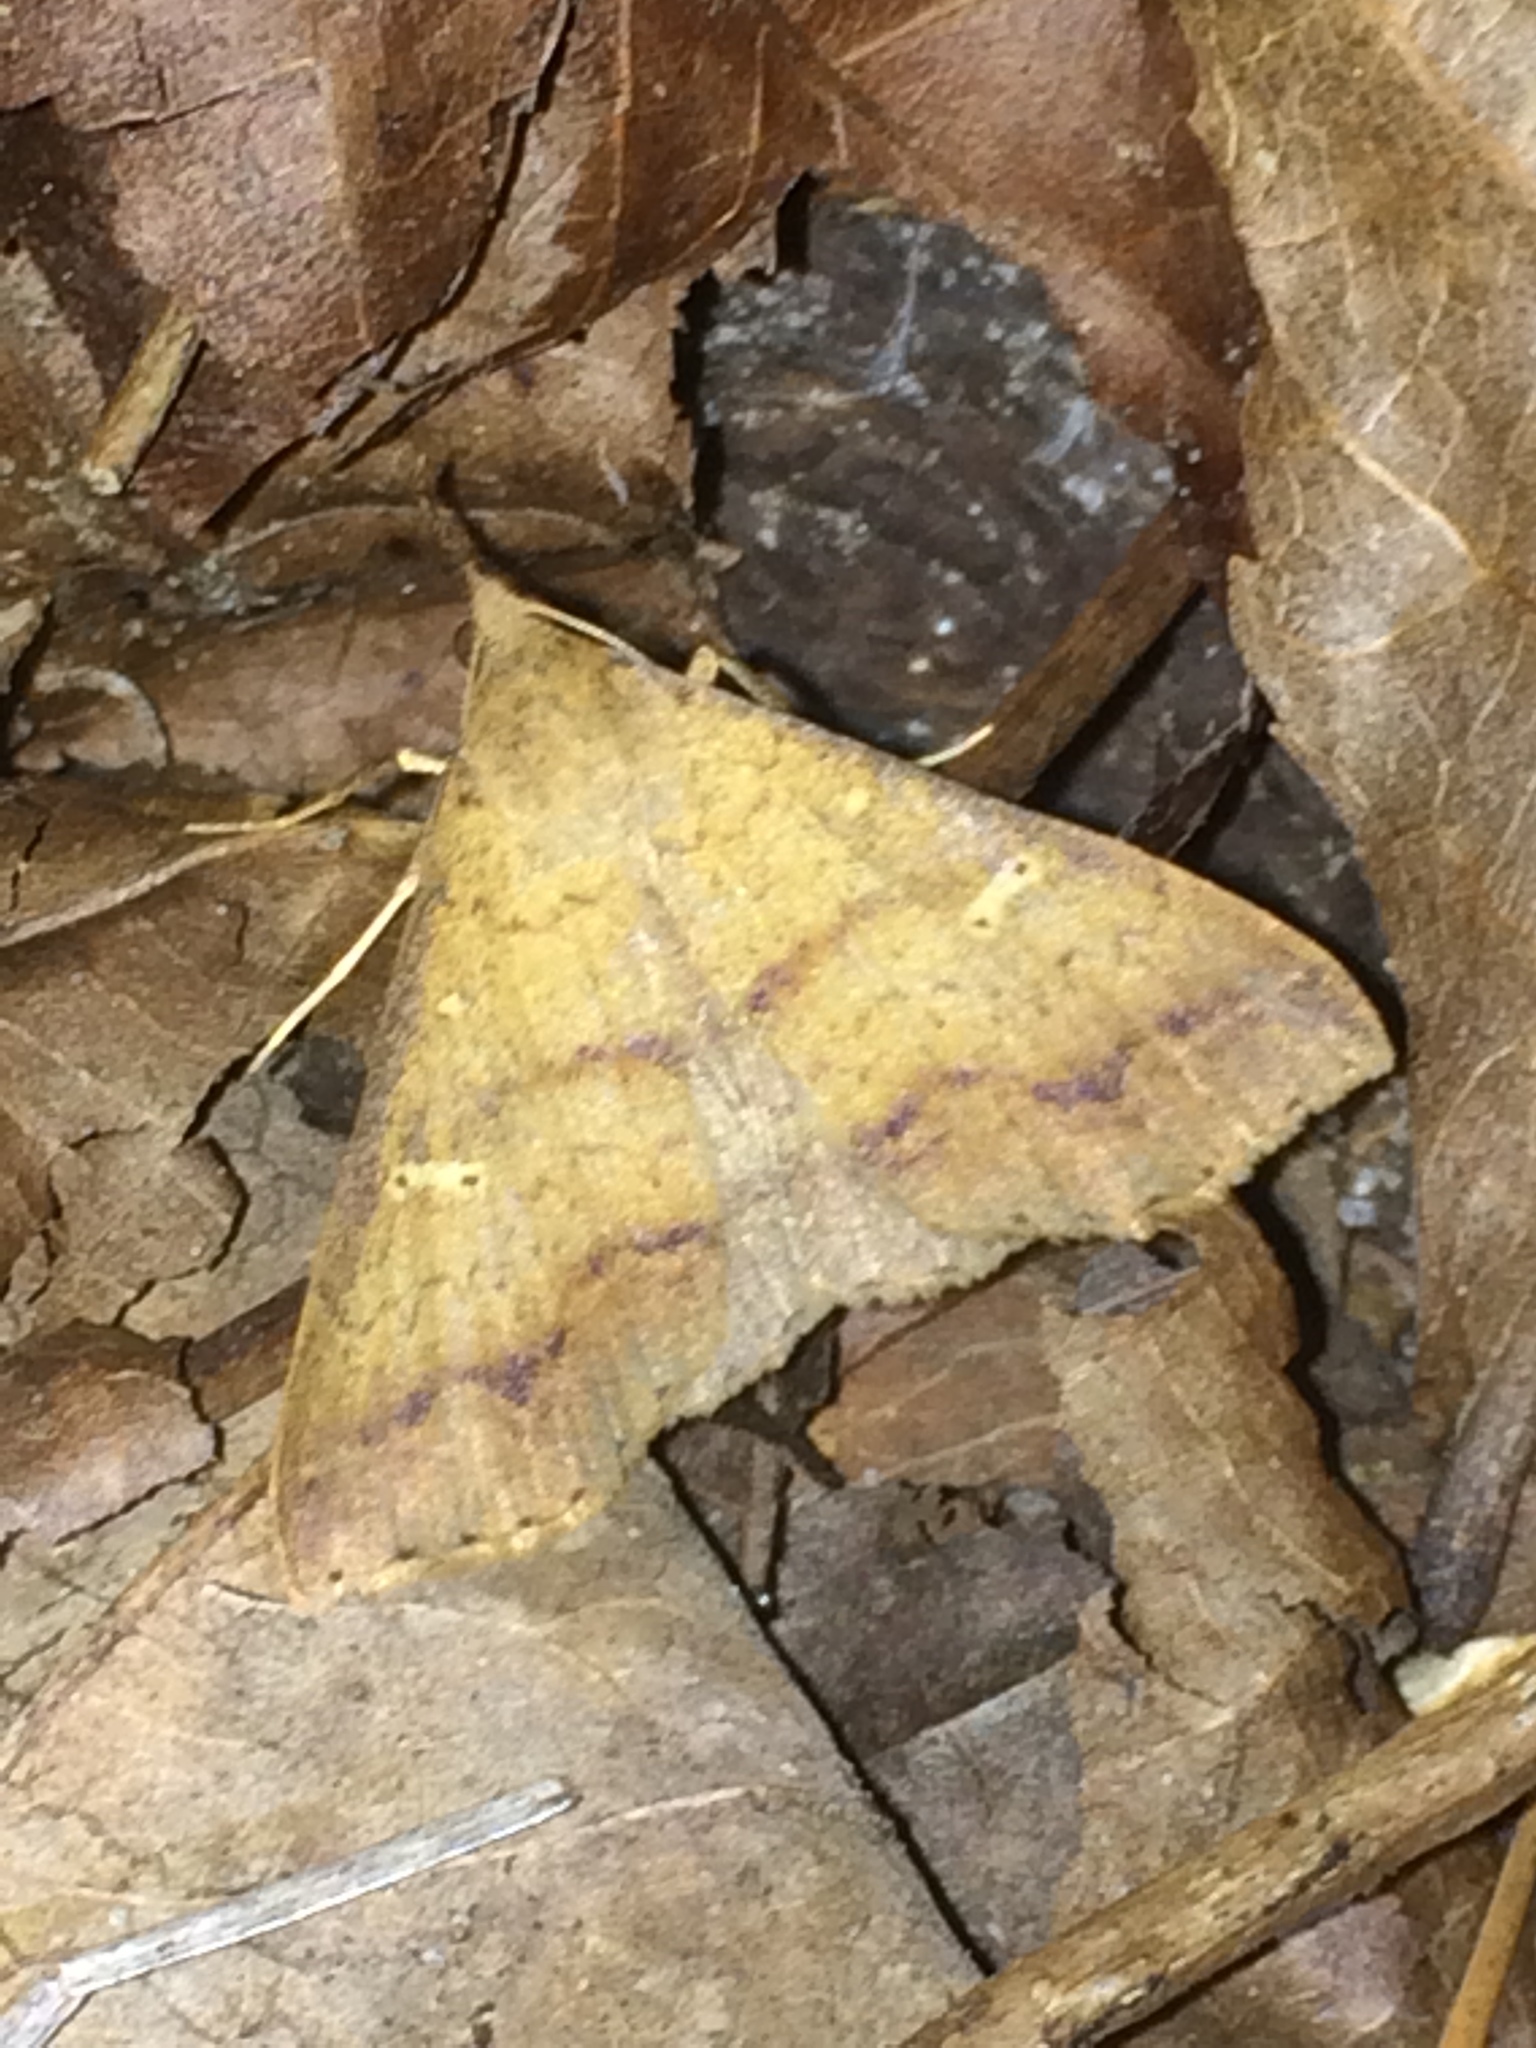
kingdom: Animalia
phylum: Arthropoda
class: Insecta
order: Lepidoptera
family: Erebidae
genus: Renia
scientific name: Renia fraternalis
